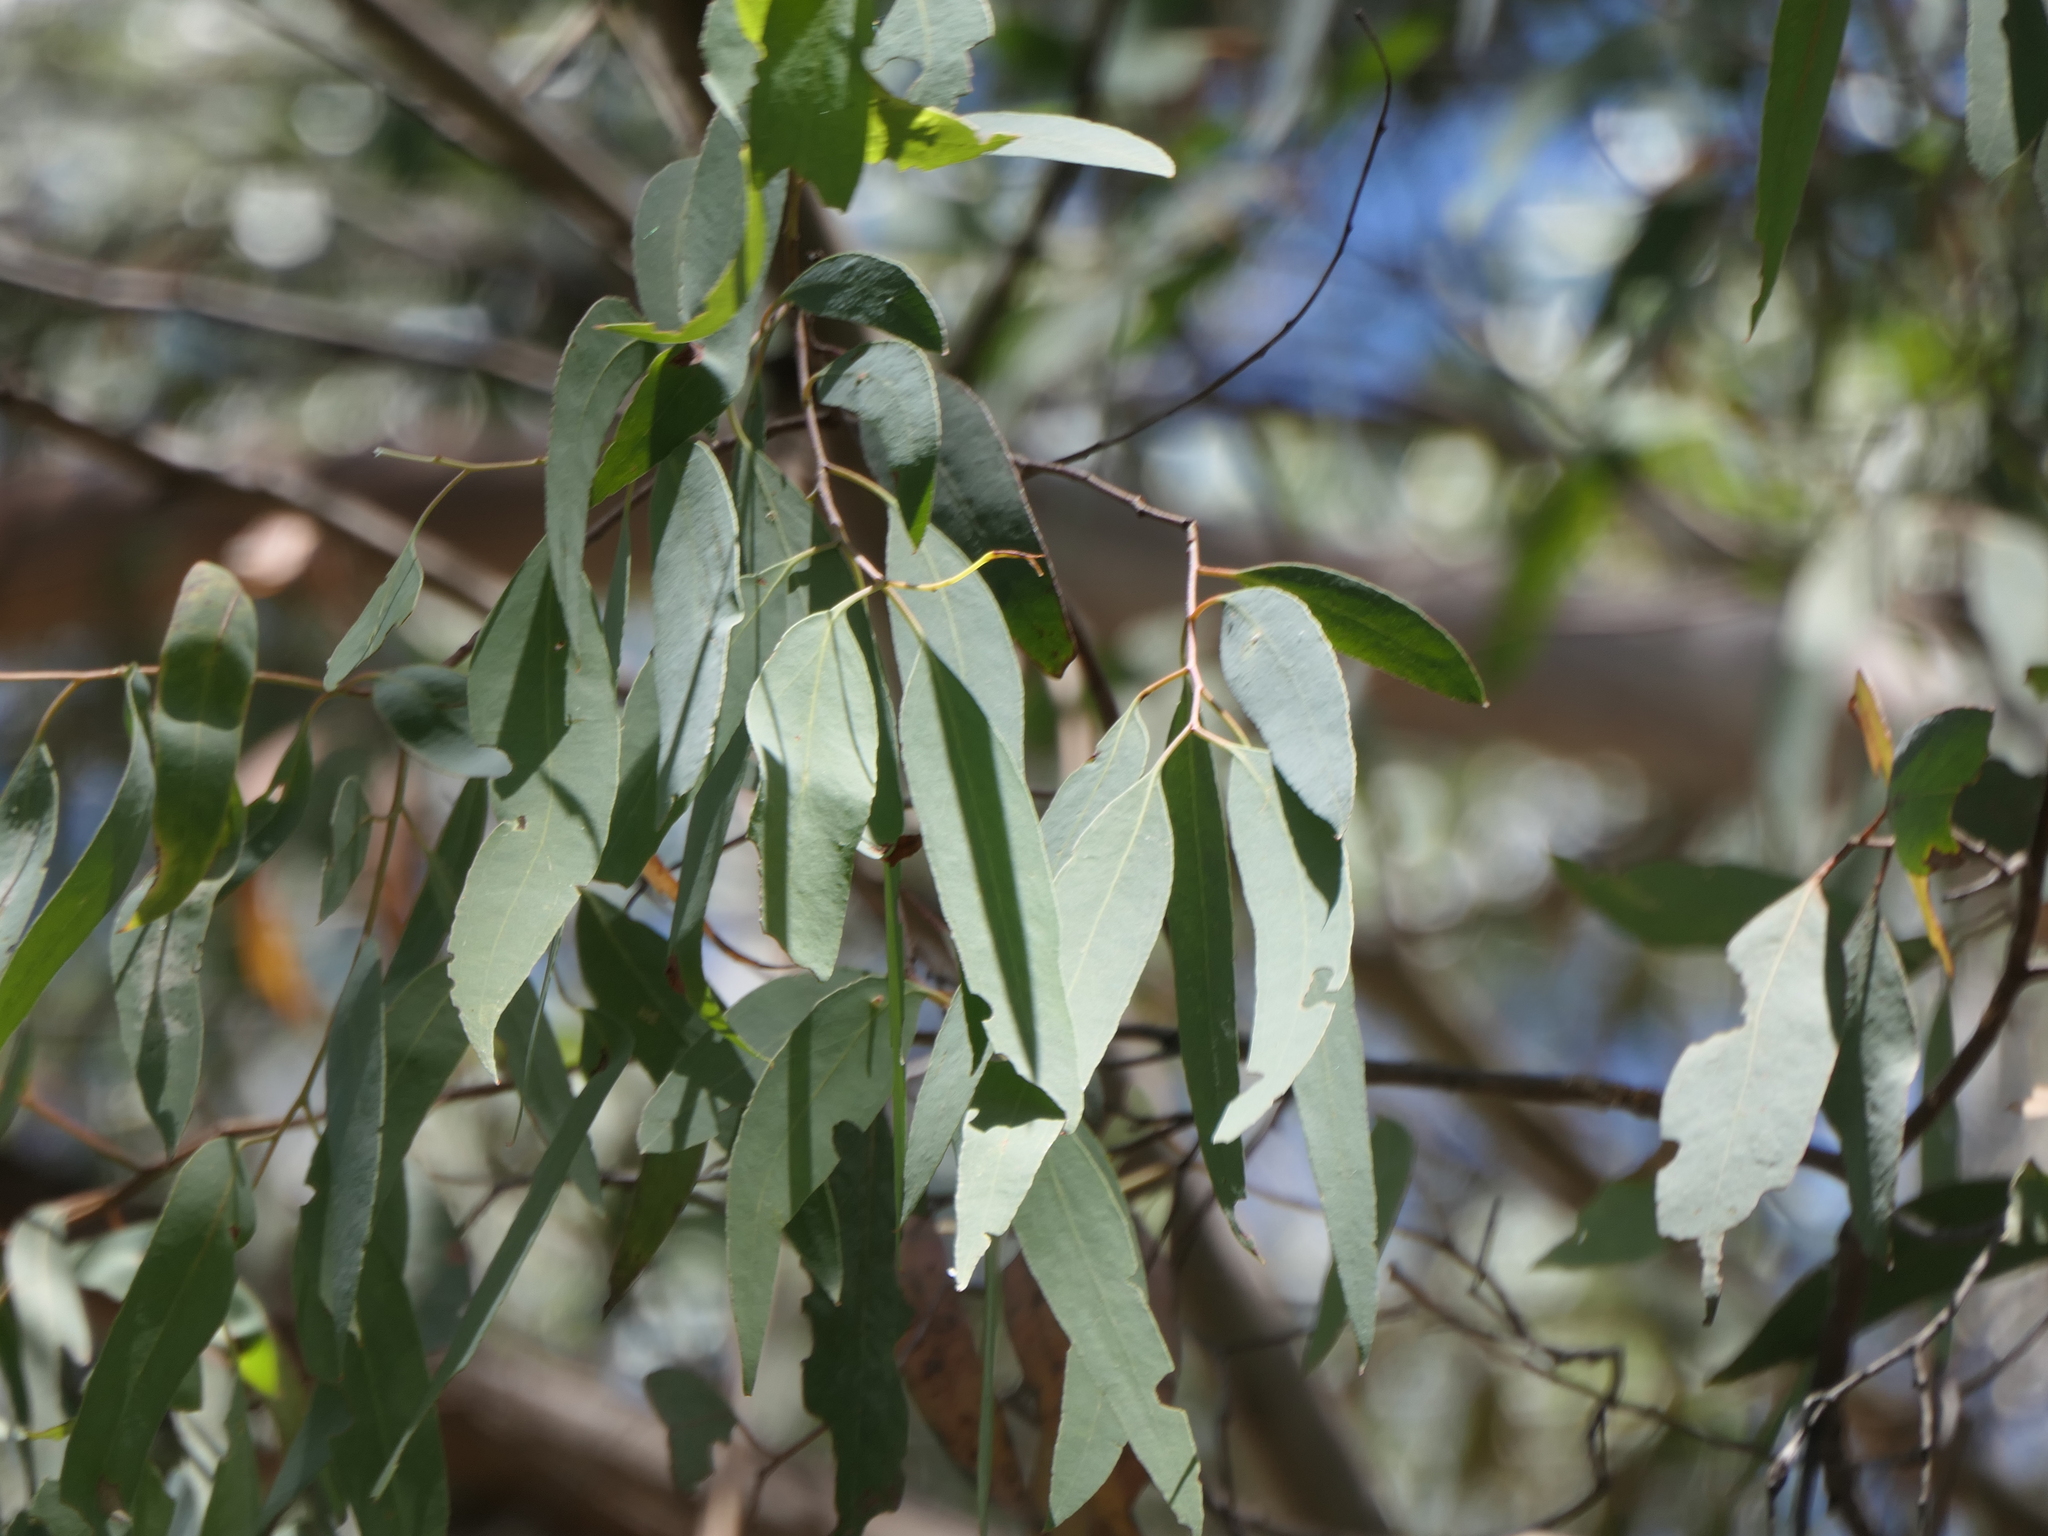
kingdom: Plantae
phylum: Tracheophyta
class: Magnoliopsida
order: Myrtales
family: Myrtaceae
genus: Eucalyptus
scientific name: Eucalyptus delegatensis
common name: Alpine-ash
